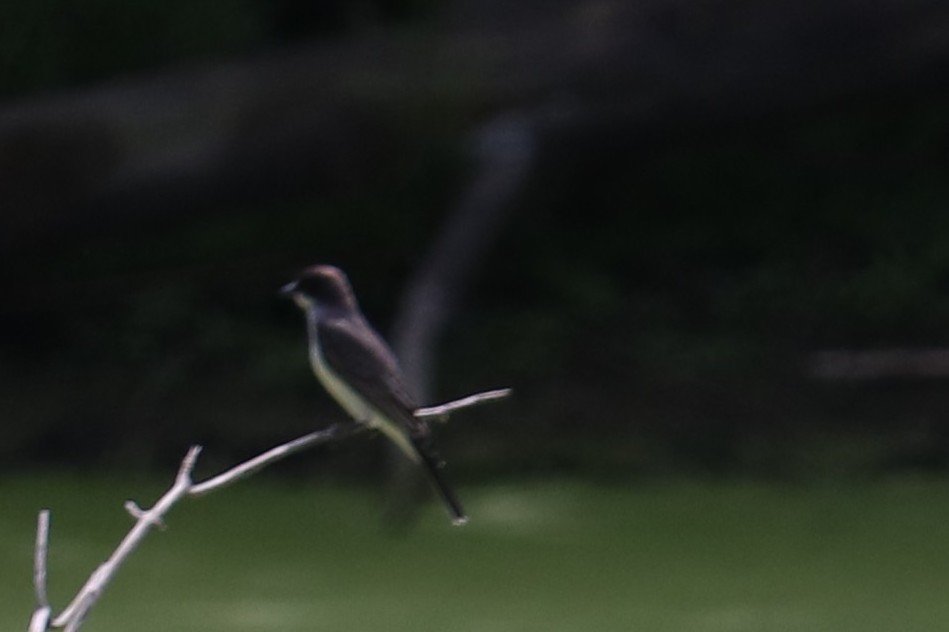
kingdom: Animalia
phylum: Chordata
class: Aves
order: Passeriformes
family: Tyrannidae
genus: Tyrannus
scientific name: Tyrannus tyrannus
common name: Eastern kingbird
